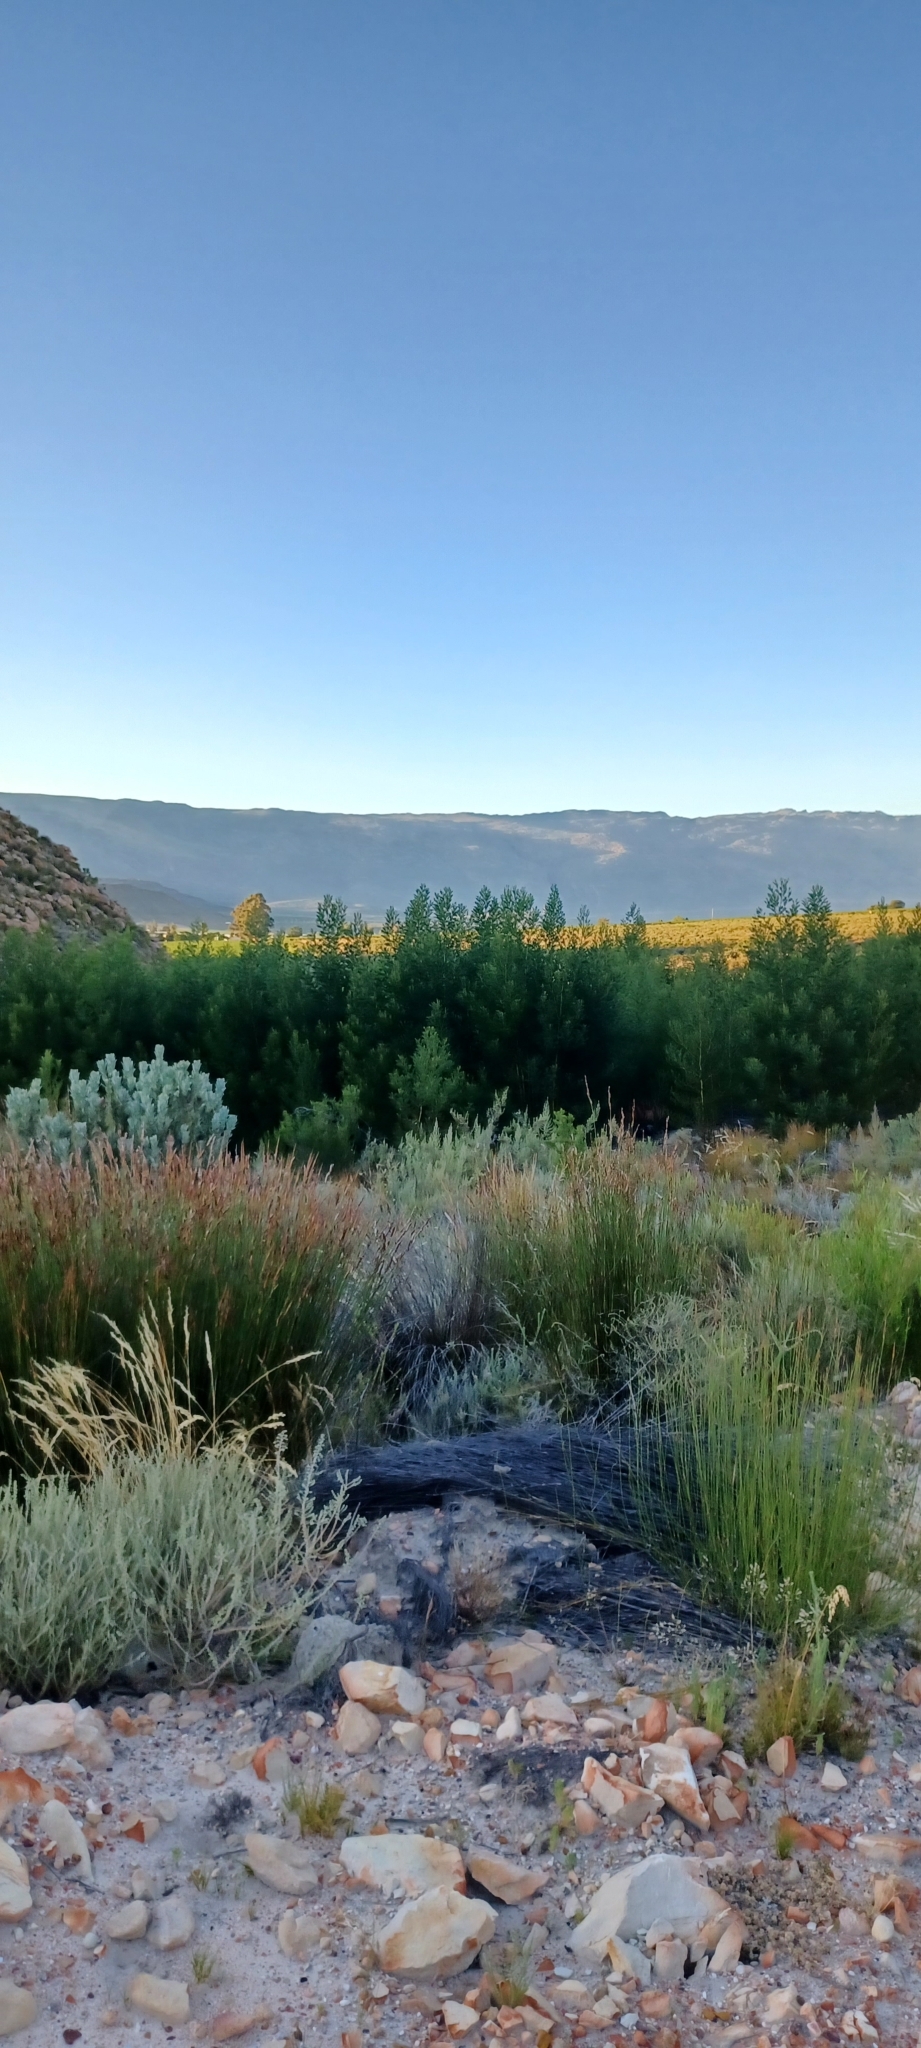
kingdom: Plantae
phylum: Tracheophyta
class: Magnoliopsida
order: Fabales
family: Fabaceae
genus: Acacia
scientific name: Acacia mearnsii
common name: Black wattle
